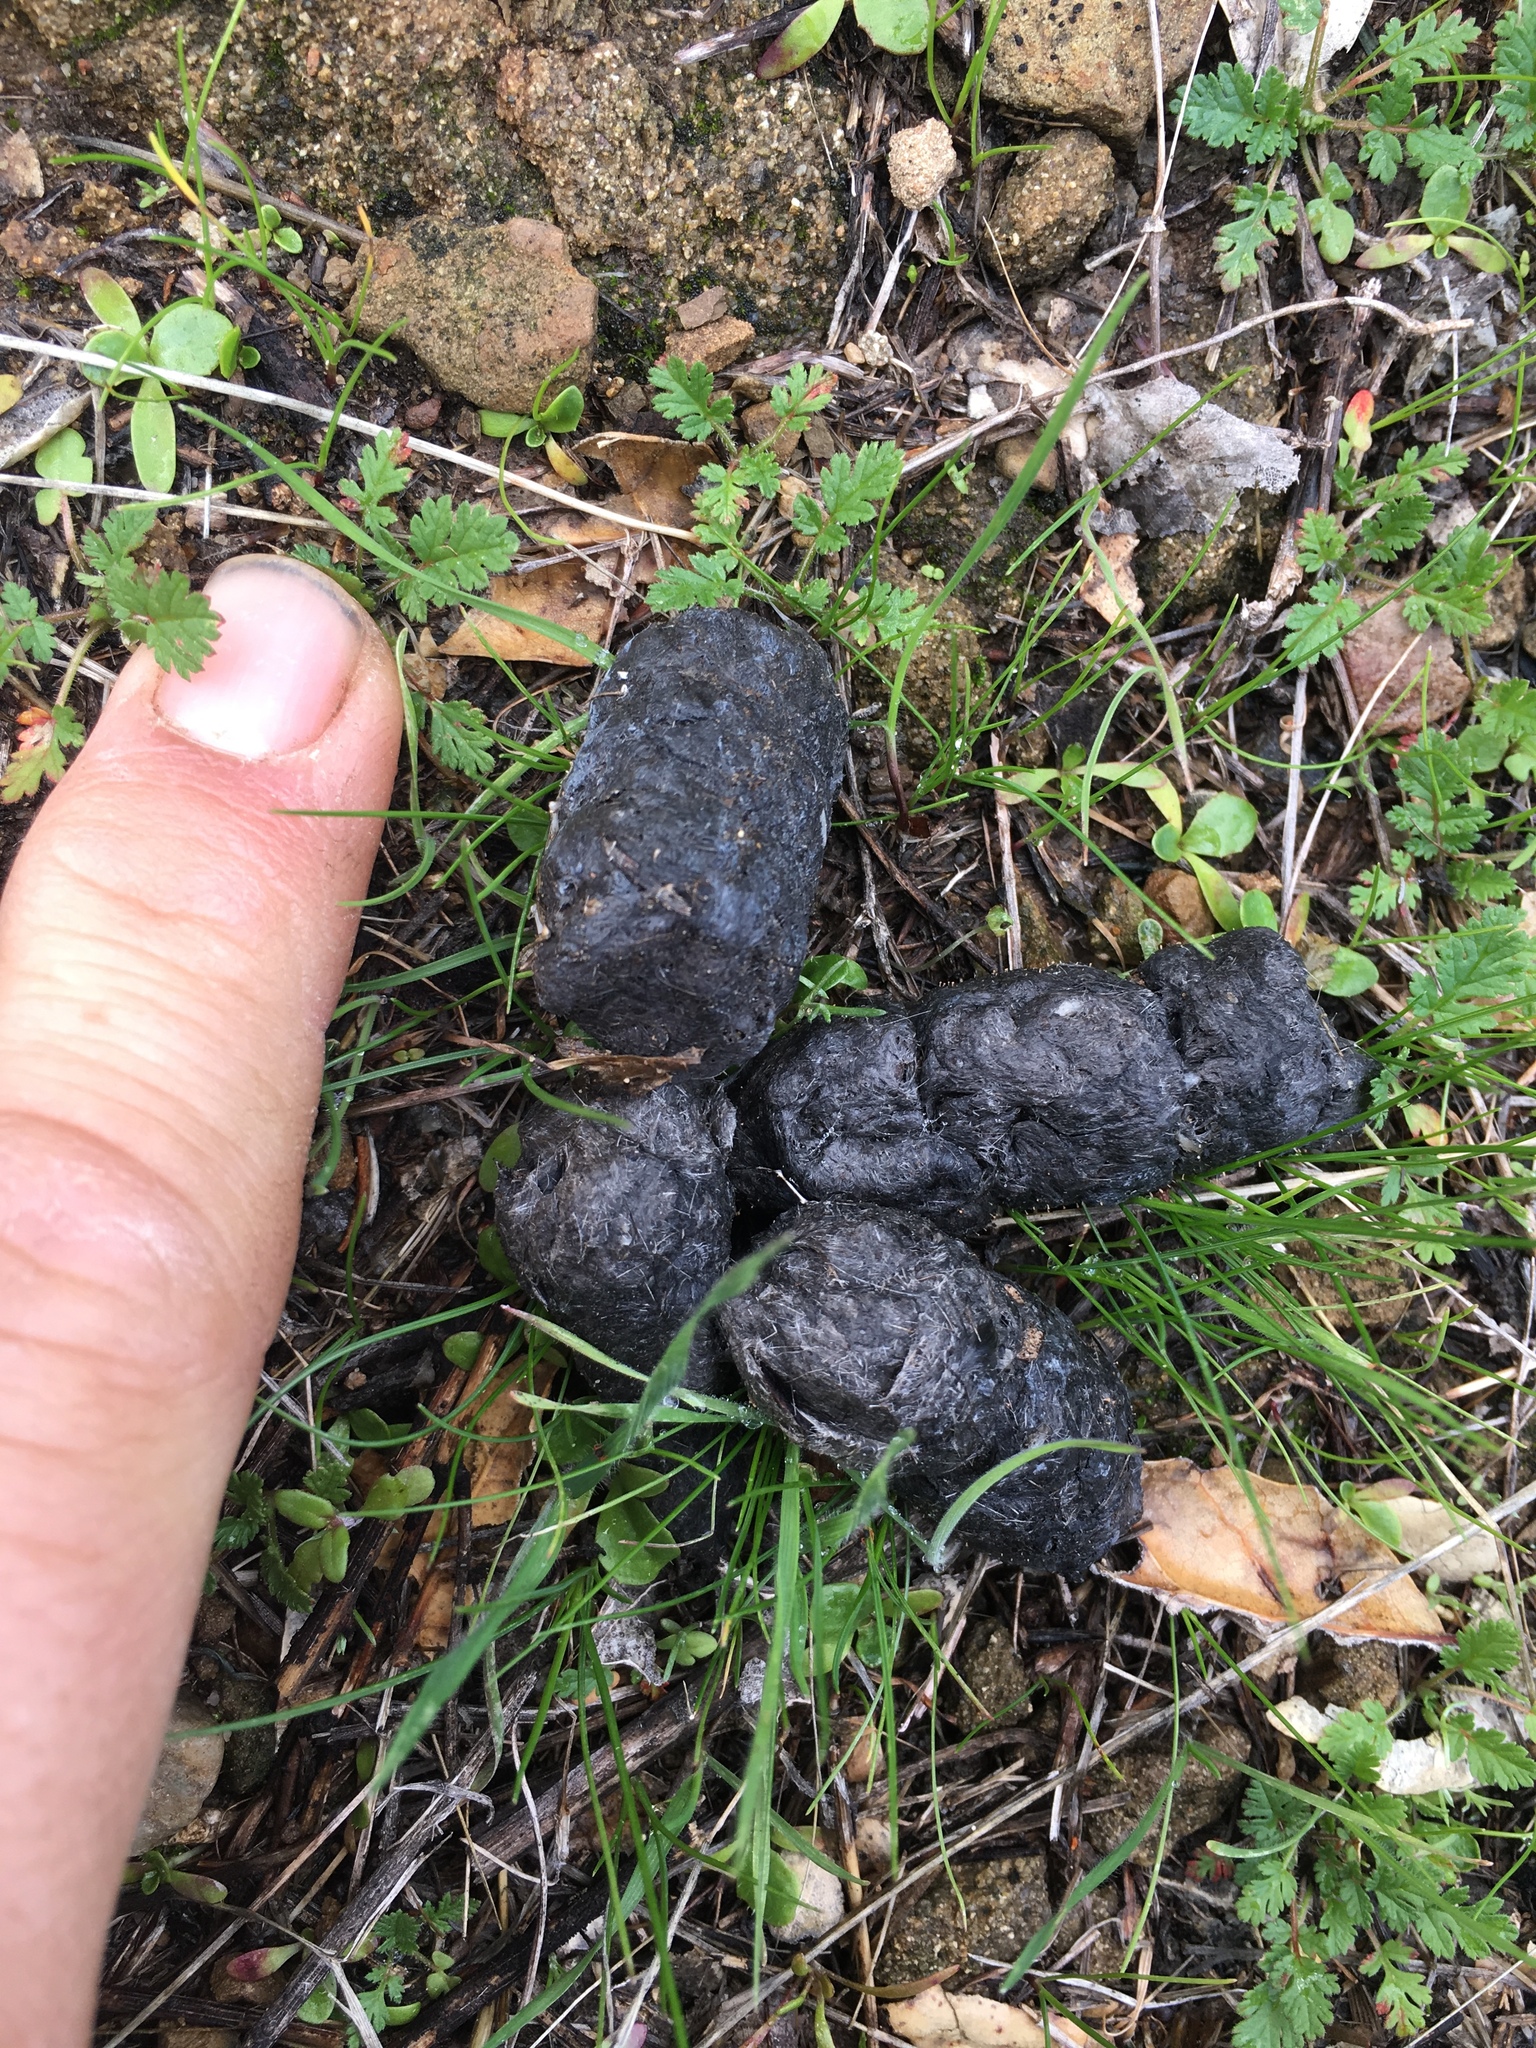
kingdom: Animalia
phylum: Chordata
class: Mammalia
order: Carnivora
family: Felidae
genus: Lynx
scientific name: Lynx rufus
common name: Bobcat
